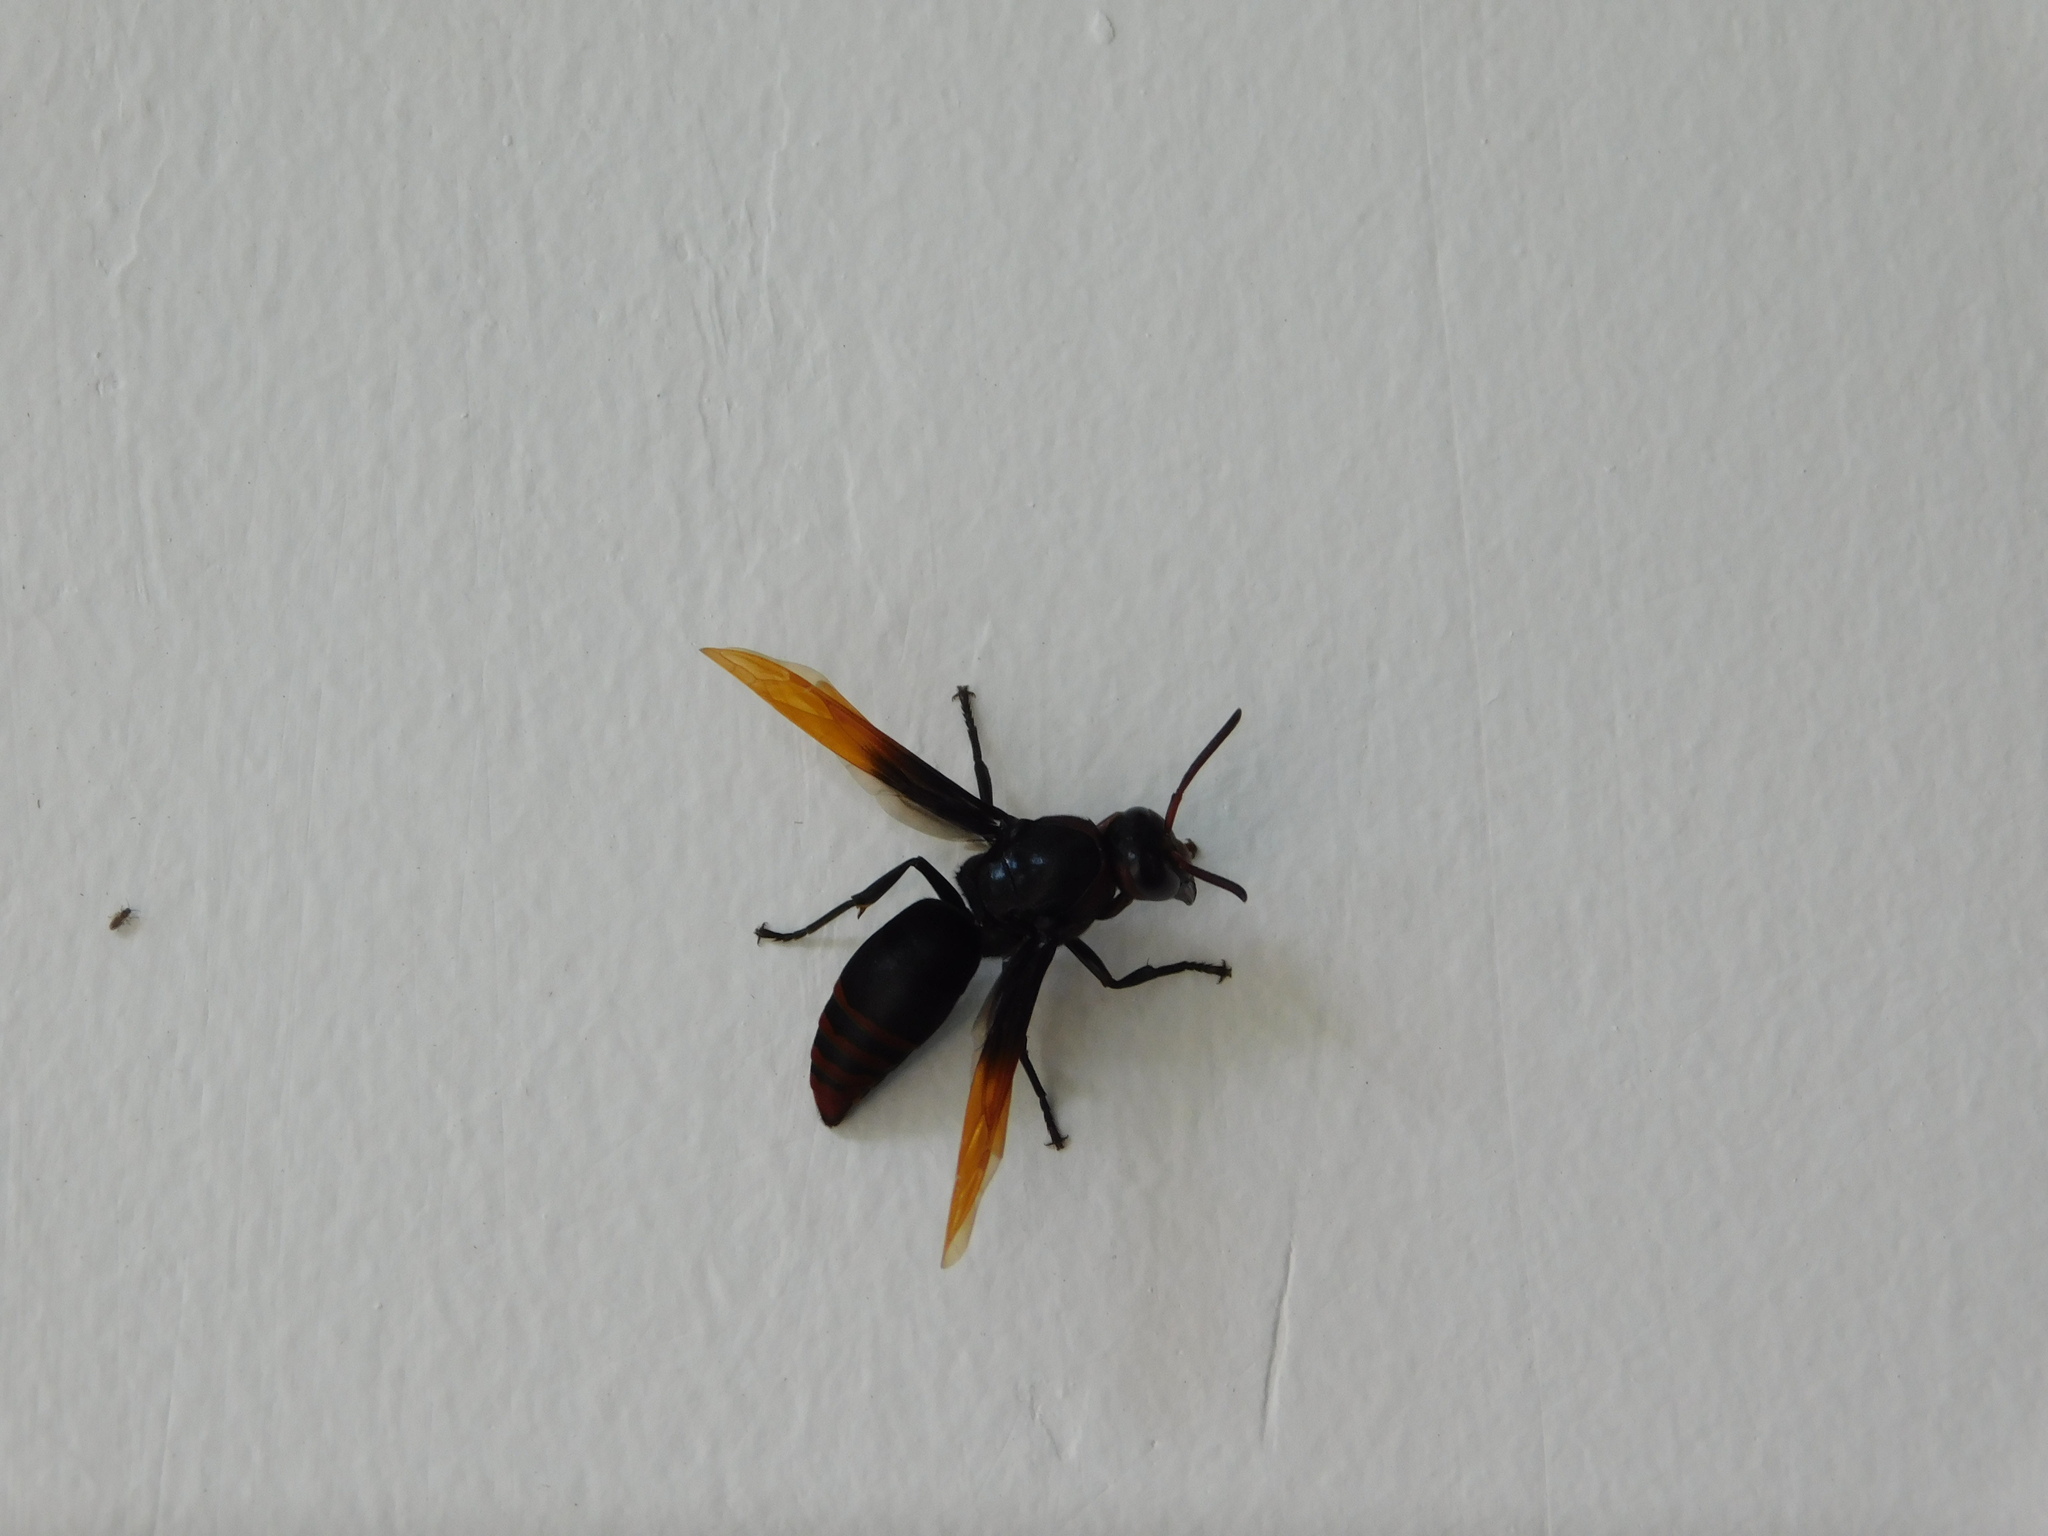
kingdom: Animalia
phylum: Arthropoda
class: Insecta
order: Hymenoptera
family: Eumenidae
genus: Rhynchium
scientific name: Rhynchium haemorrhoidale
